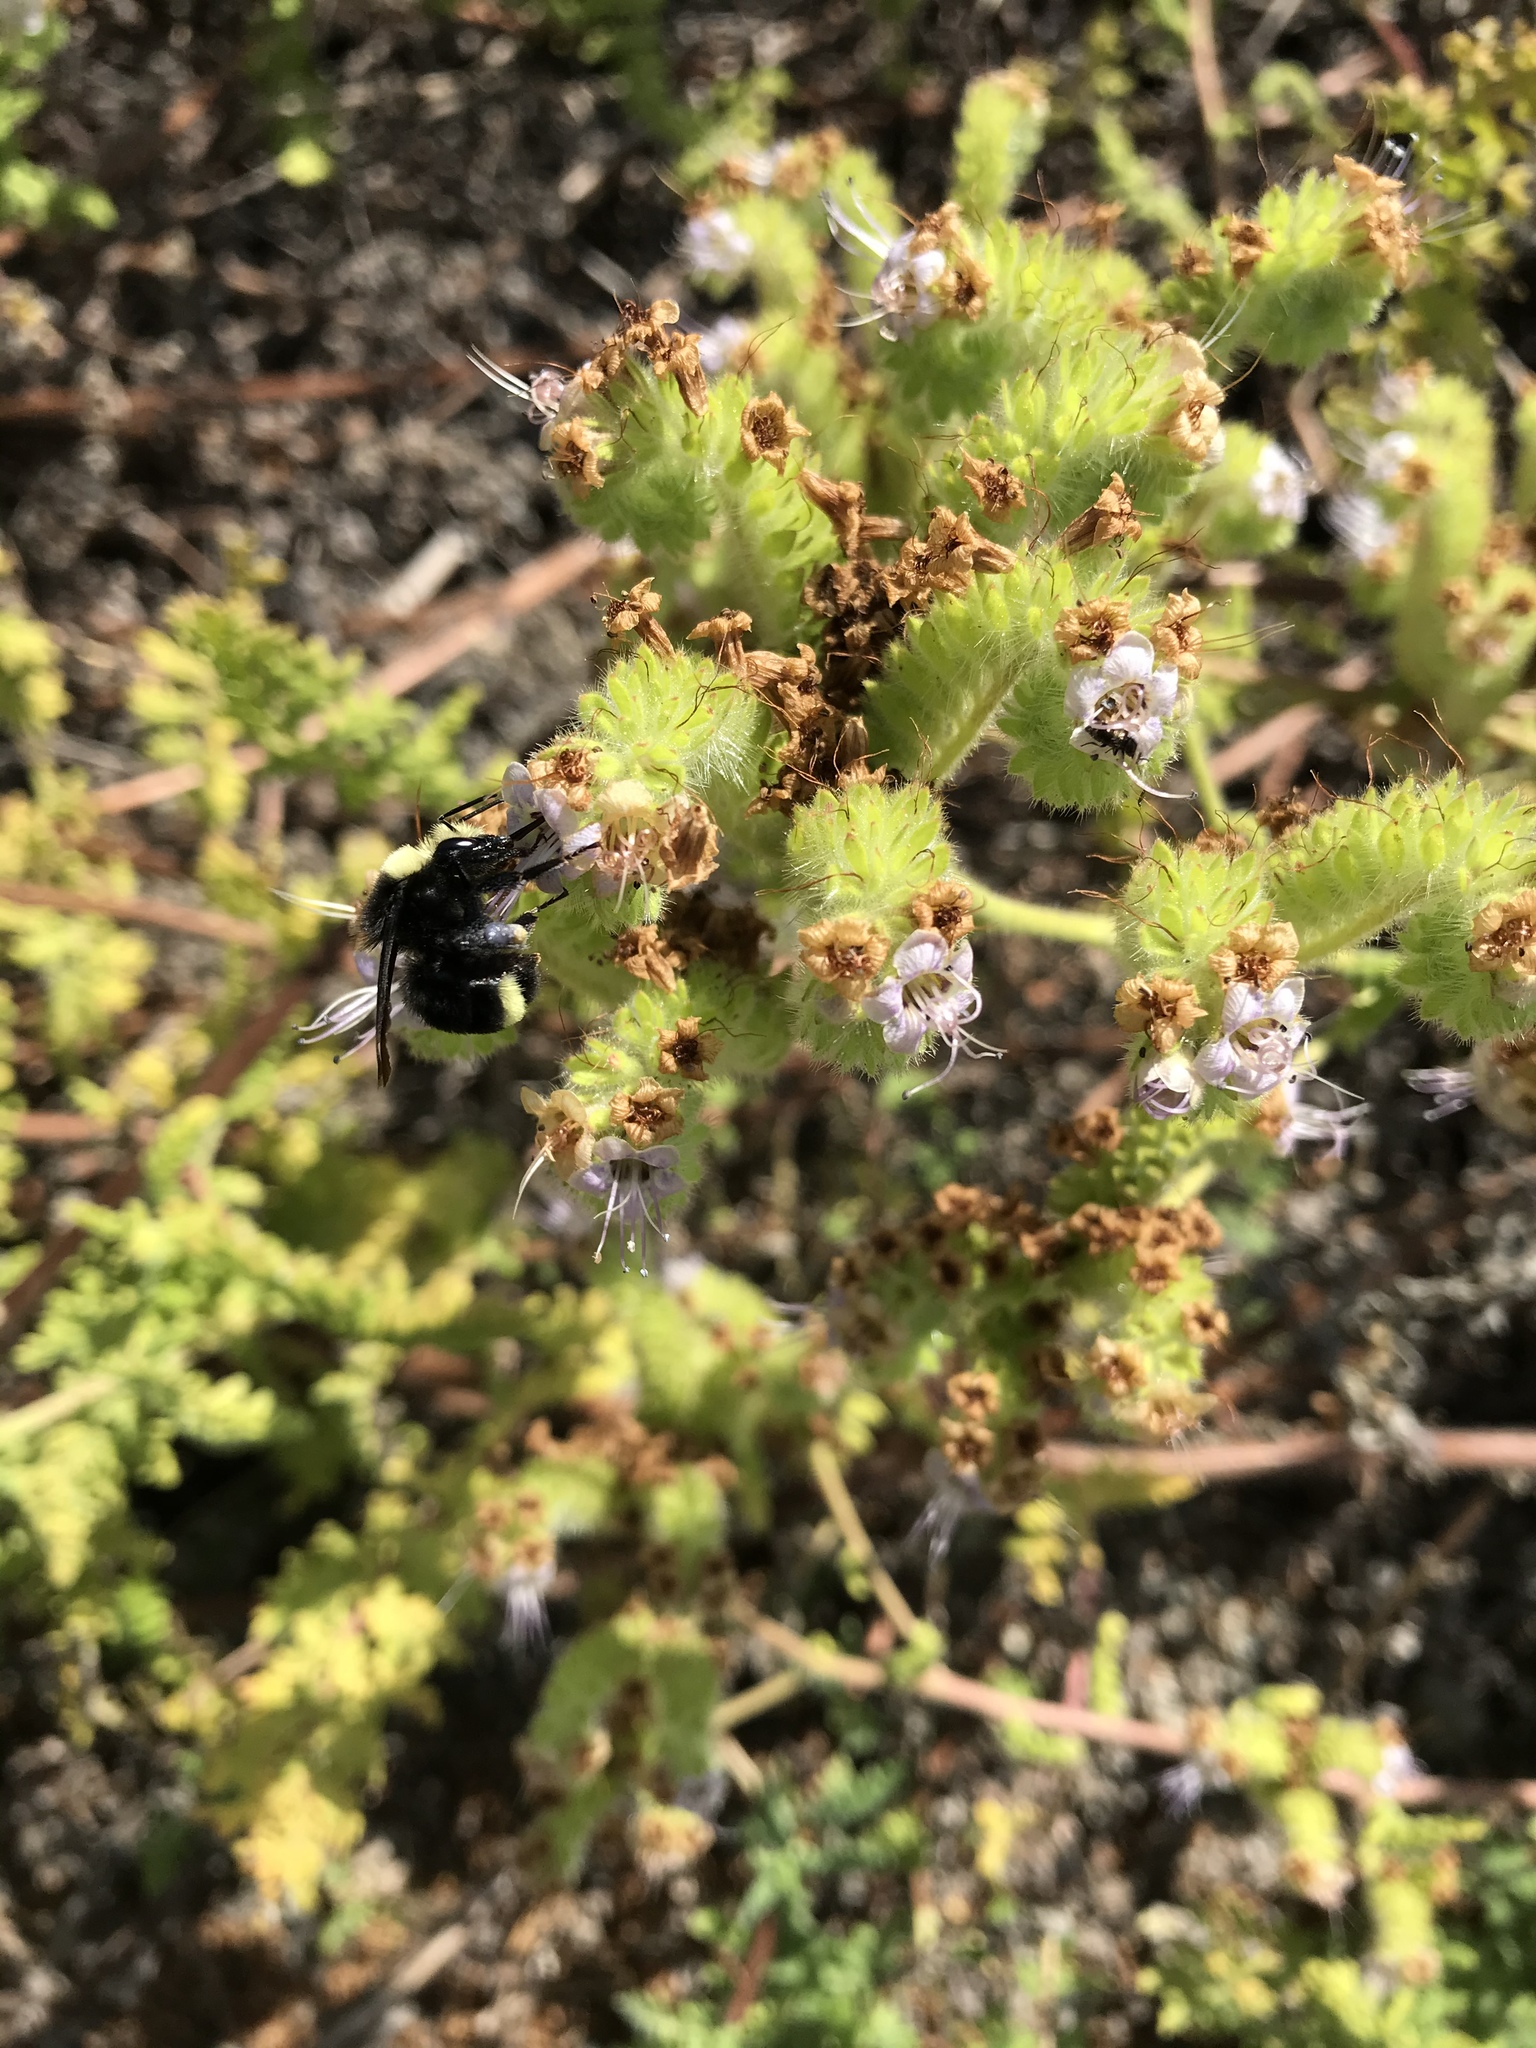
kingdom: Animalia
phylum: Arthropoda
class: Insecta
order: Hymenoptera
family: Apidae
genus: Bombus
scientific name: Bombus vosnesenskii
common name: Vosnesensky bumble bee
